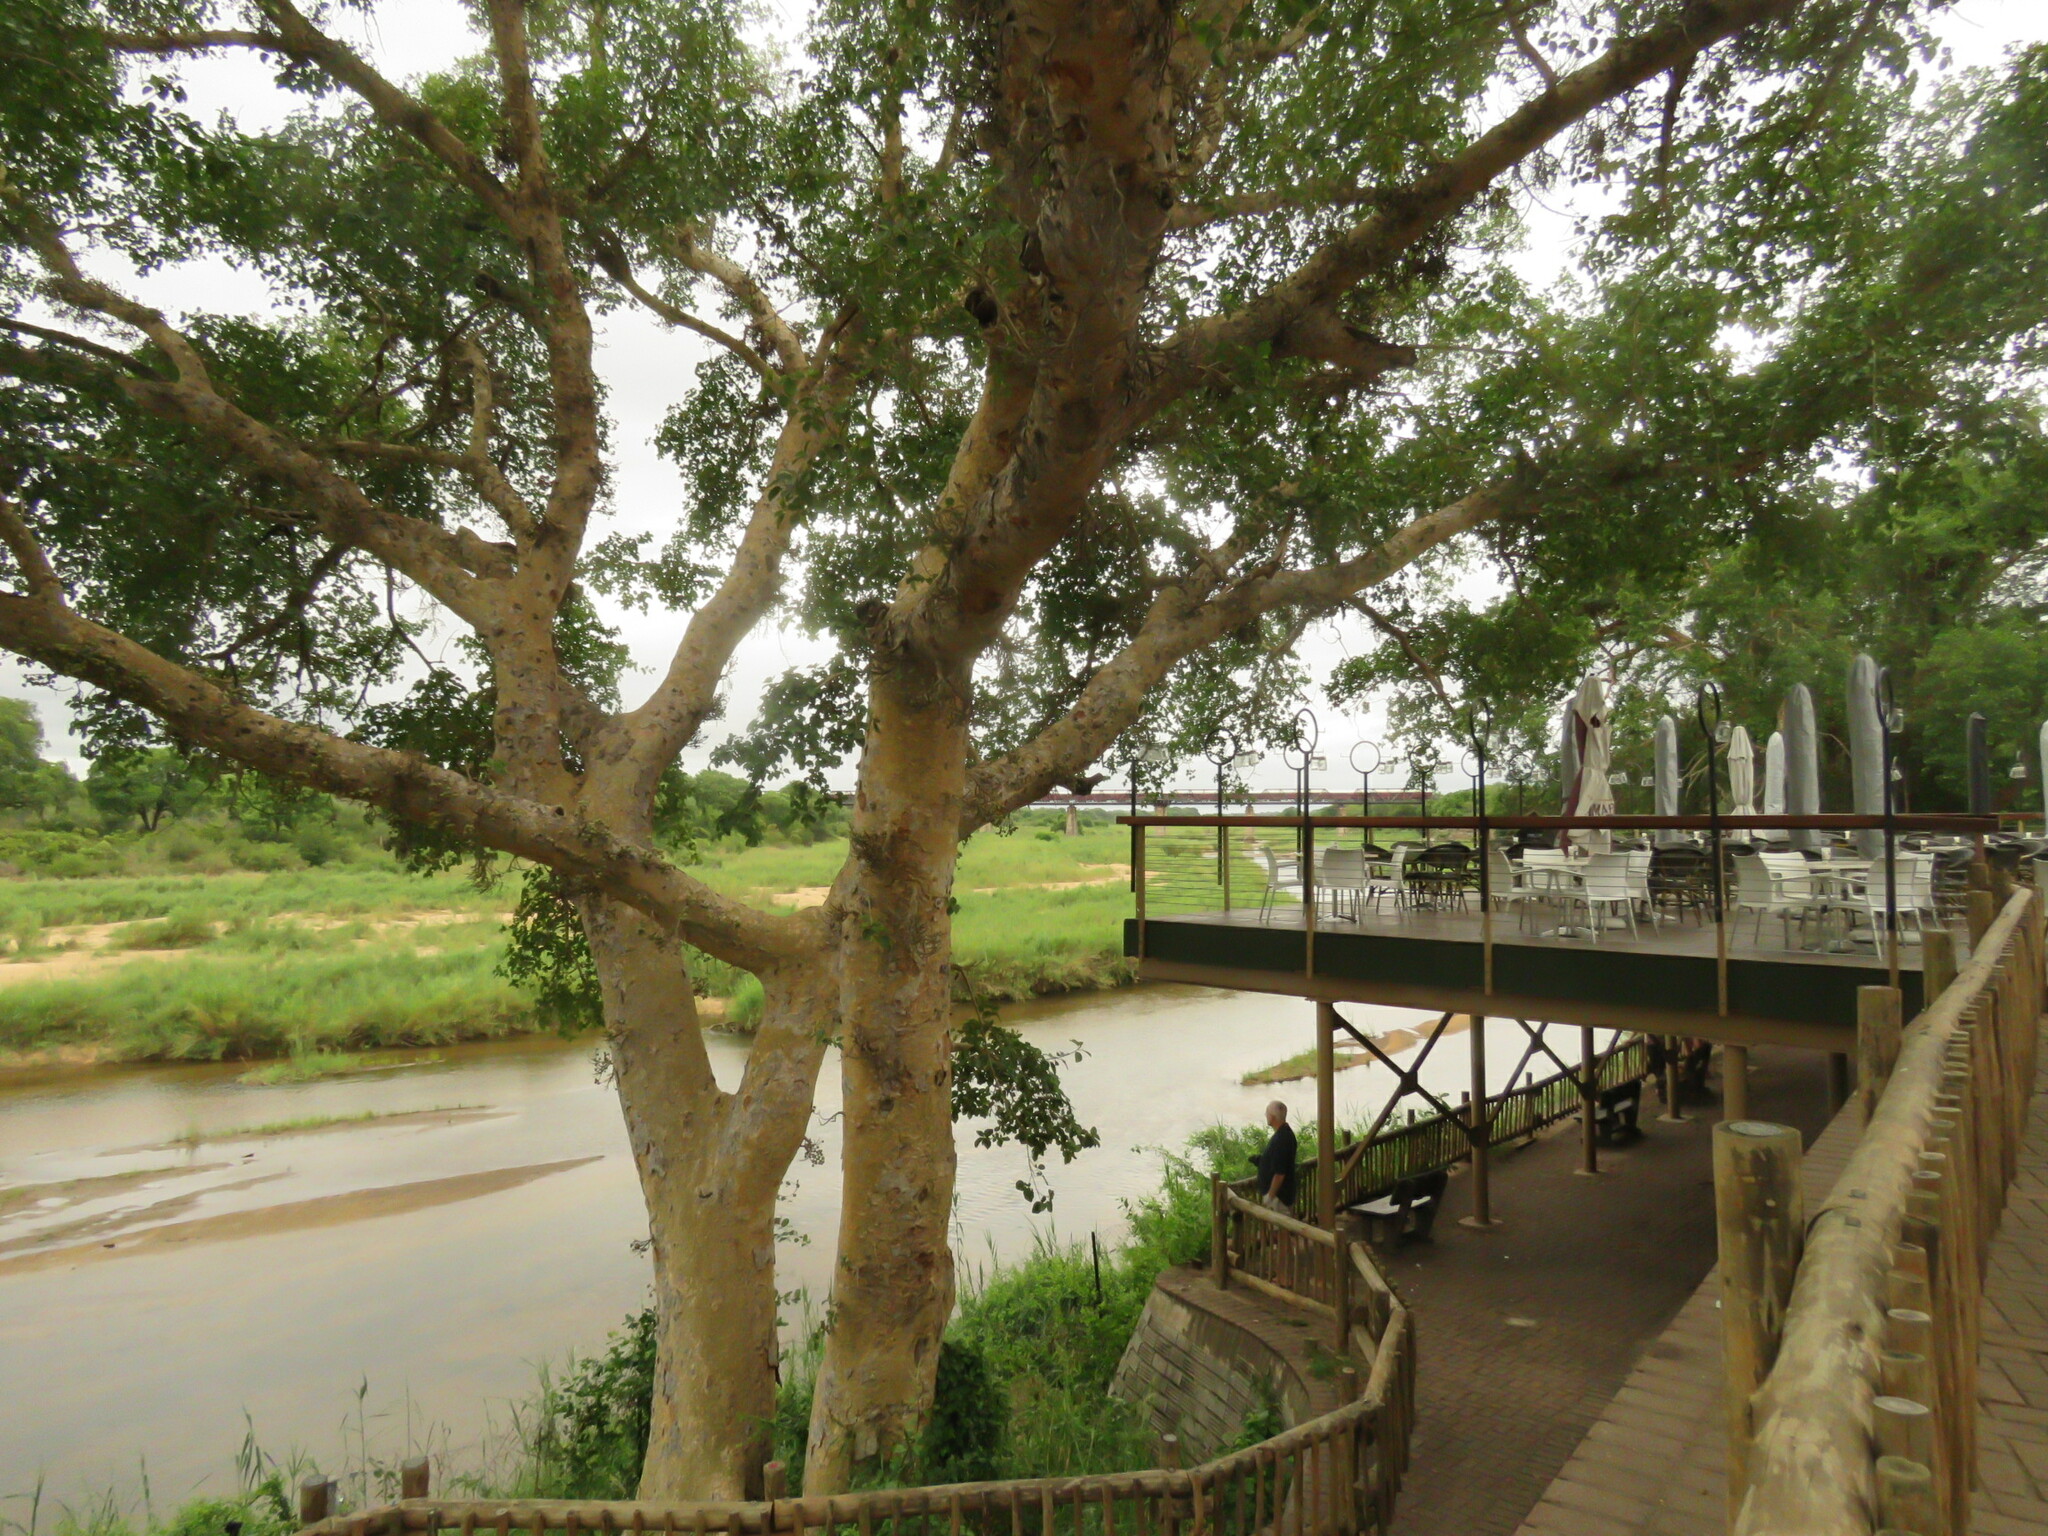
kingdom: Plantae
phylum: Tracheophyta
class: Magnoliopsida
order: Rosales
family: Moraceae
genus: Ficus
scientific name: Ficus sycomorus
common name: Sycomore
